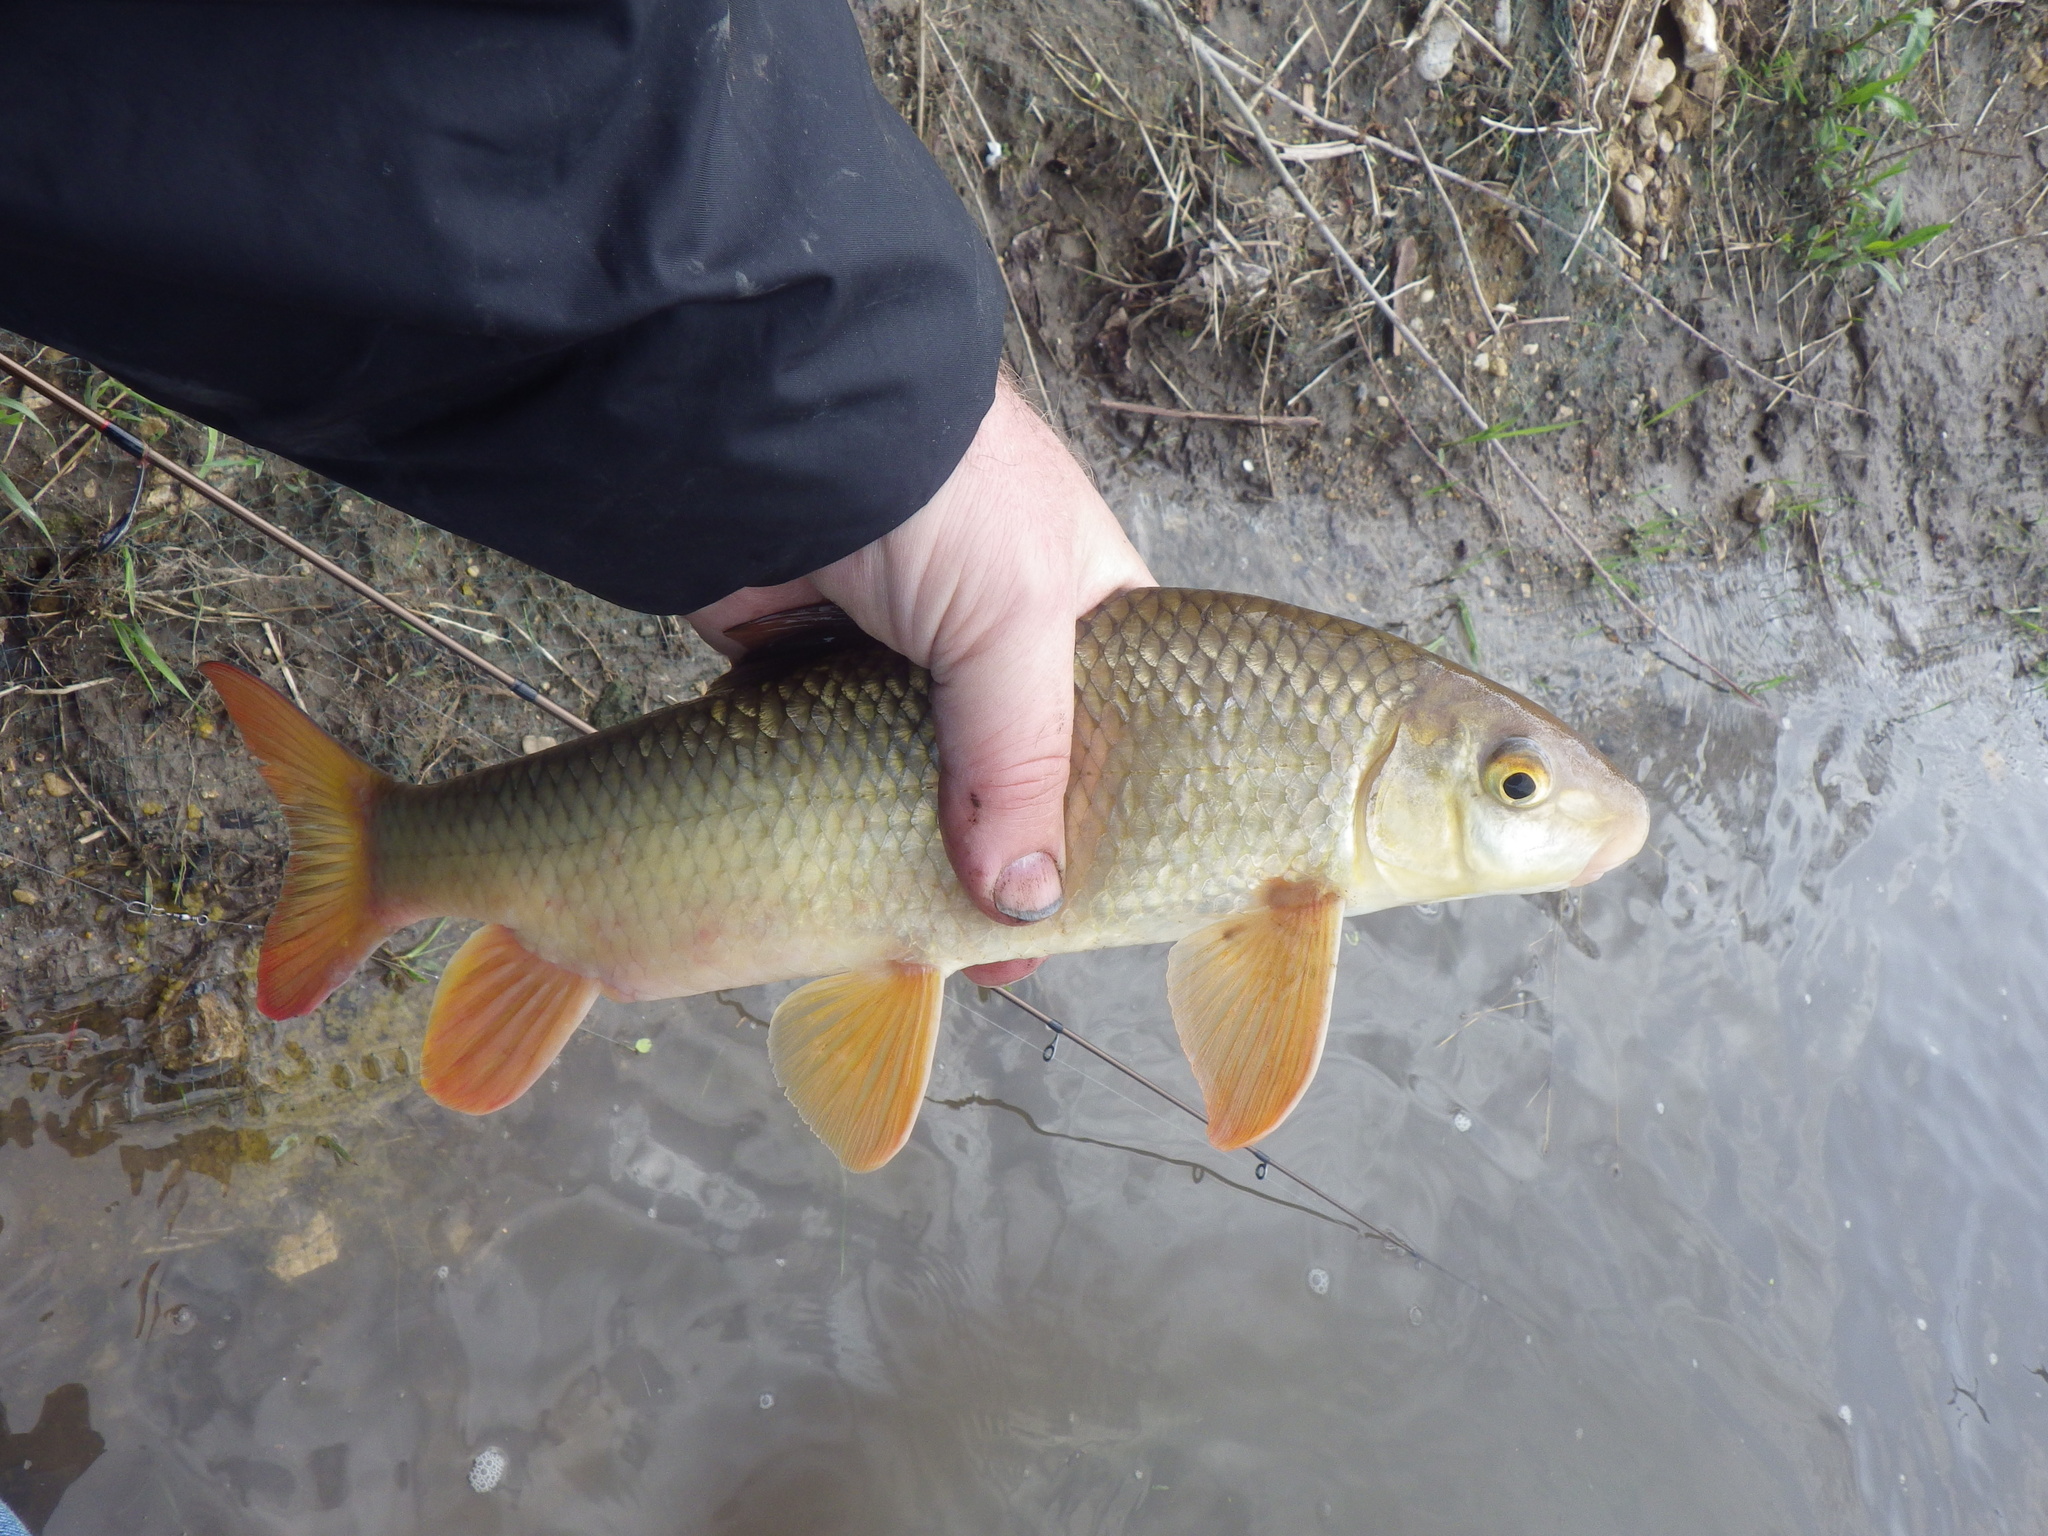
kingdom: Animalia
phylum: Chordata
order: Cypriniformes
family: Catostomidae
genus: Moxostoma
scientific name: Moxostoma macrolepidotum
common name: Shorthead redhorse
